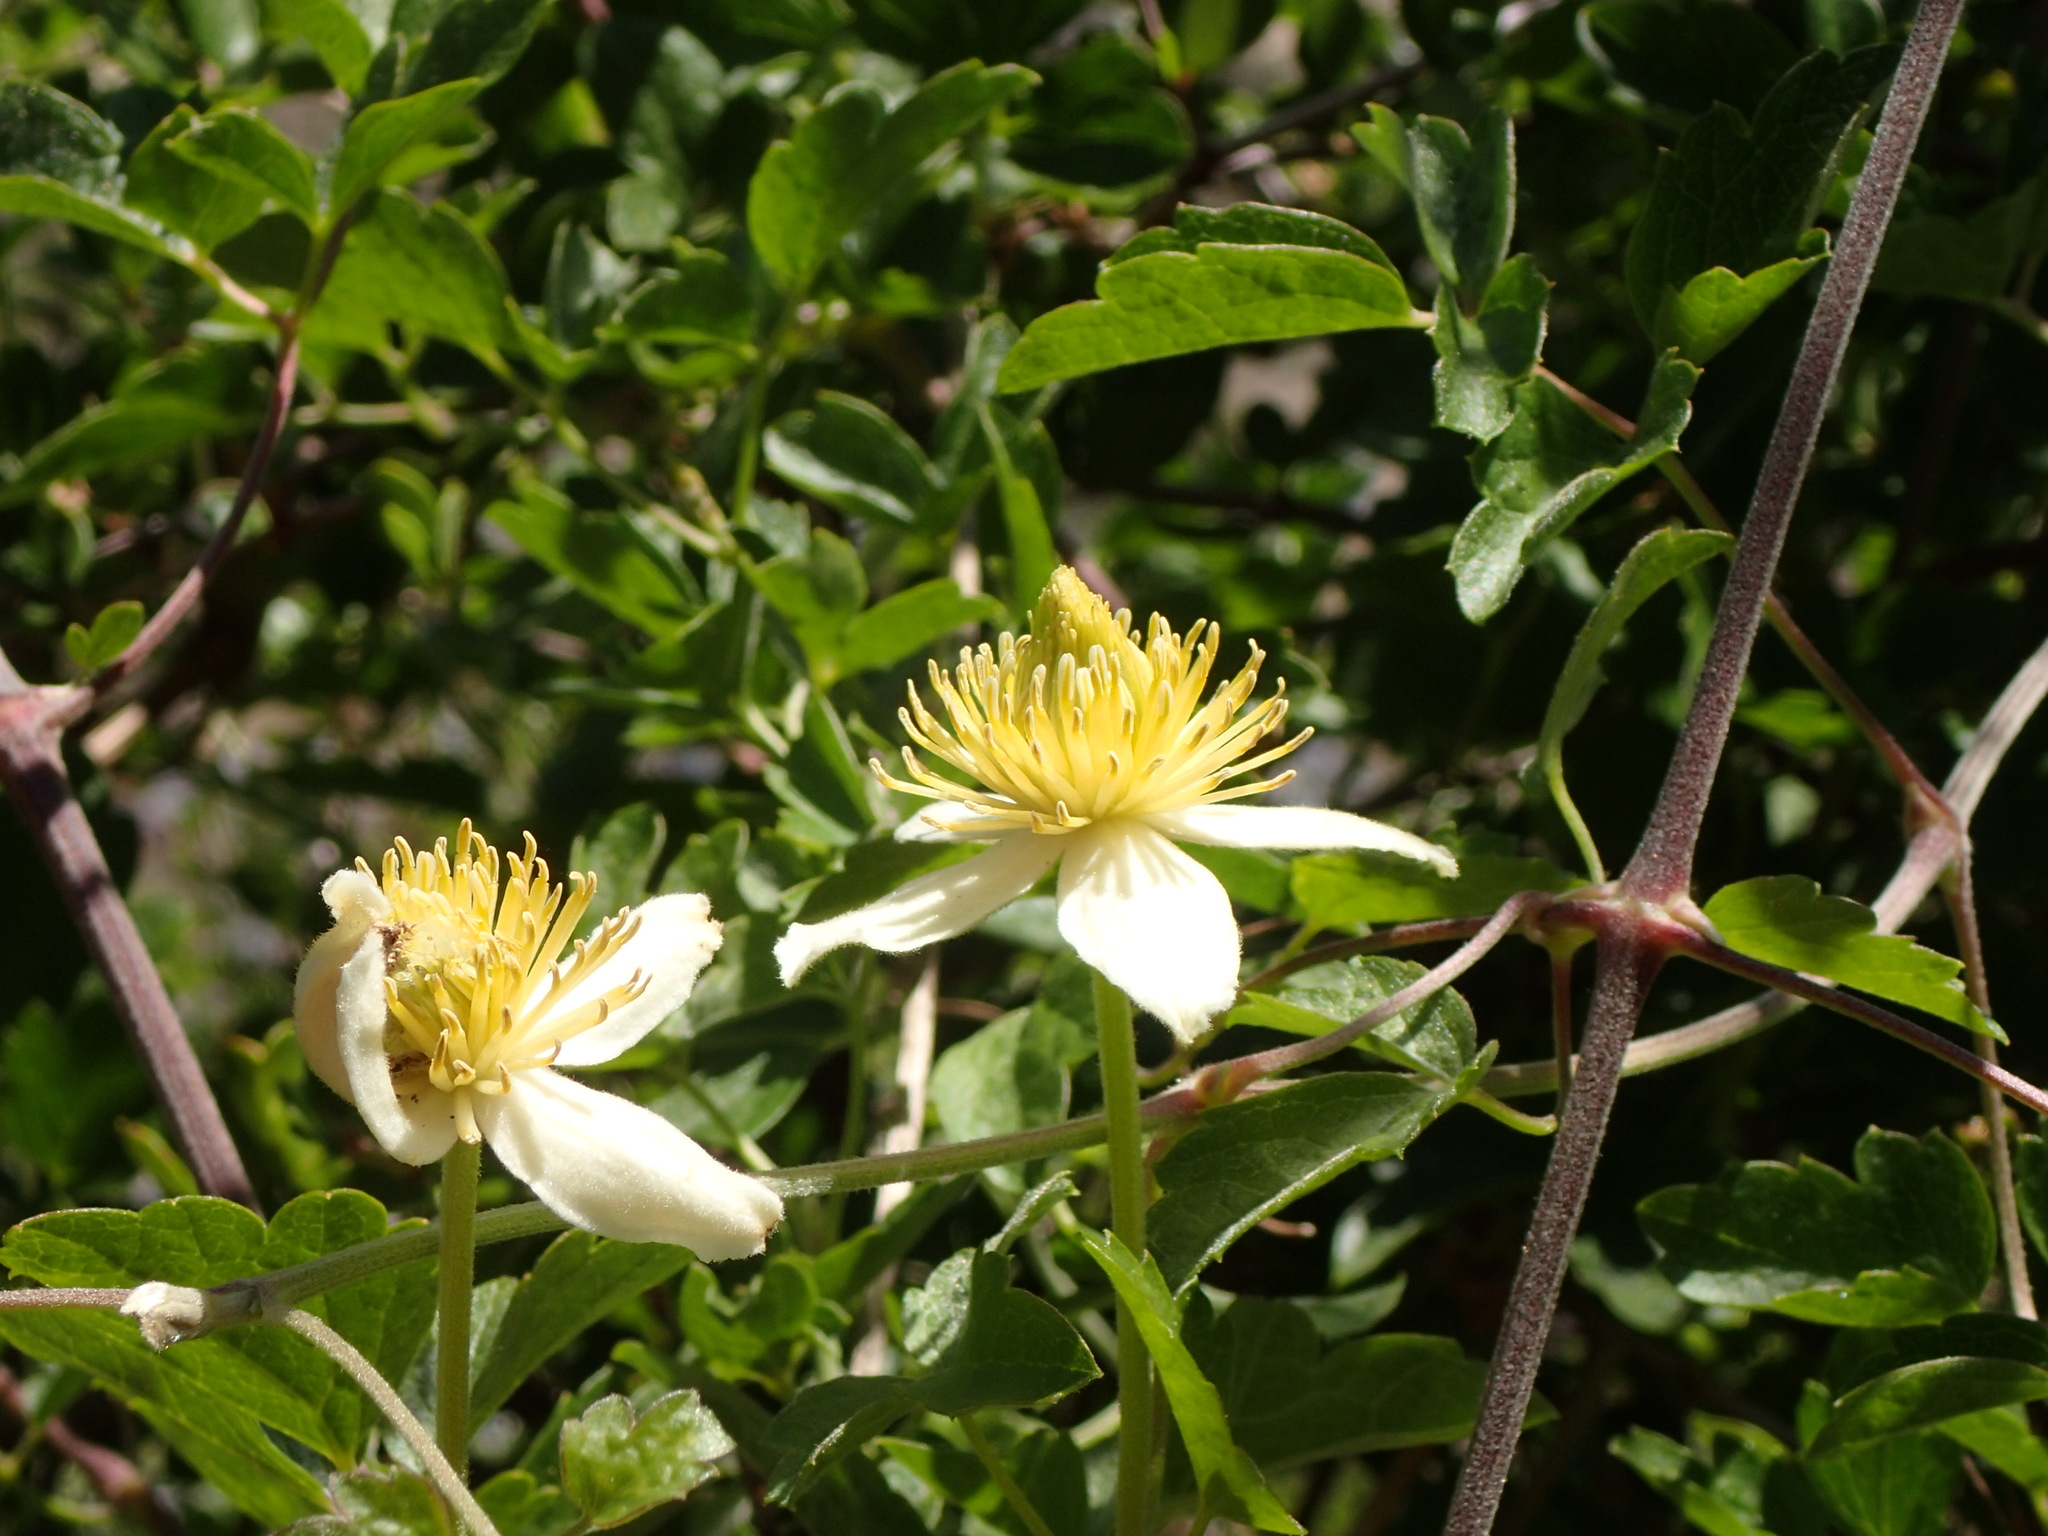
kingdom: Plantae
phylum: Tracheophyta
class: Magnoliopsida
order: Ranunculales
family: Ranunculaceae
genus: Clematis
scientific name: Clematis lasiantha
